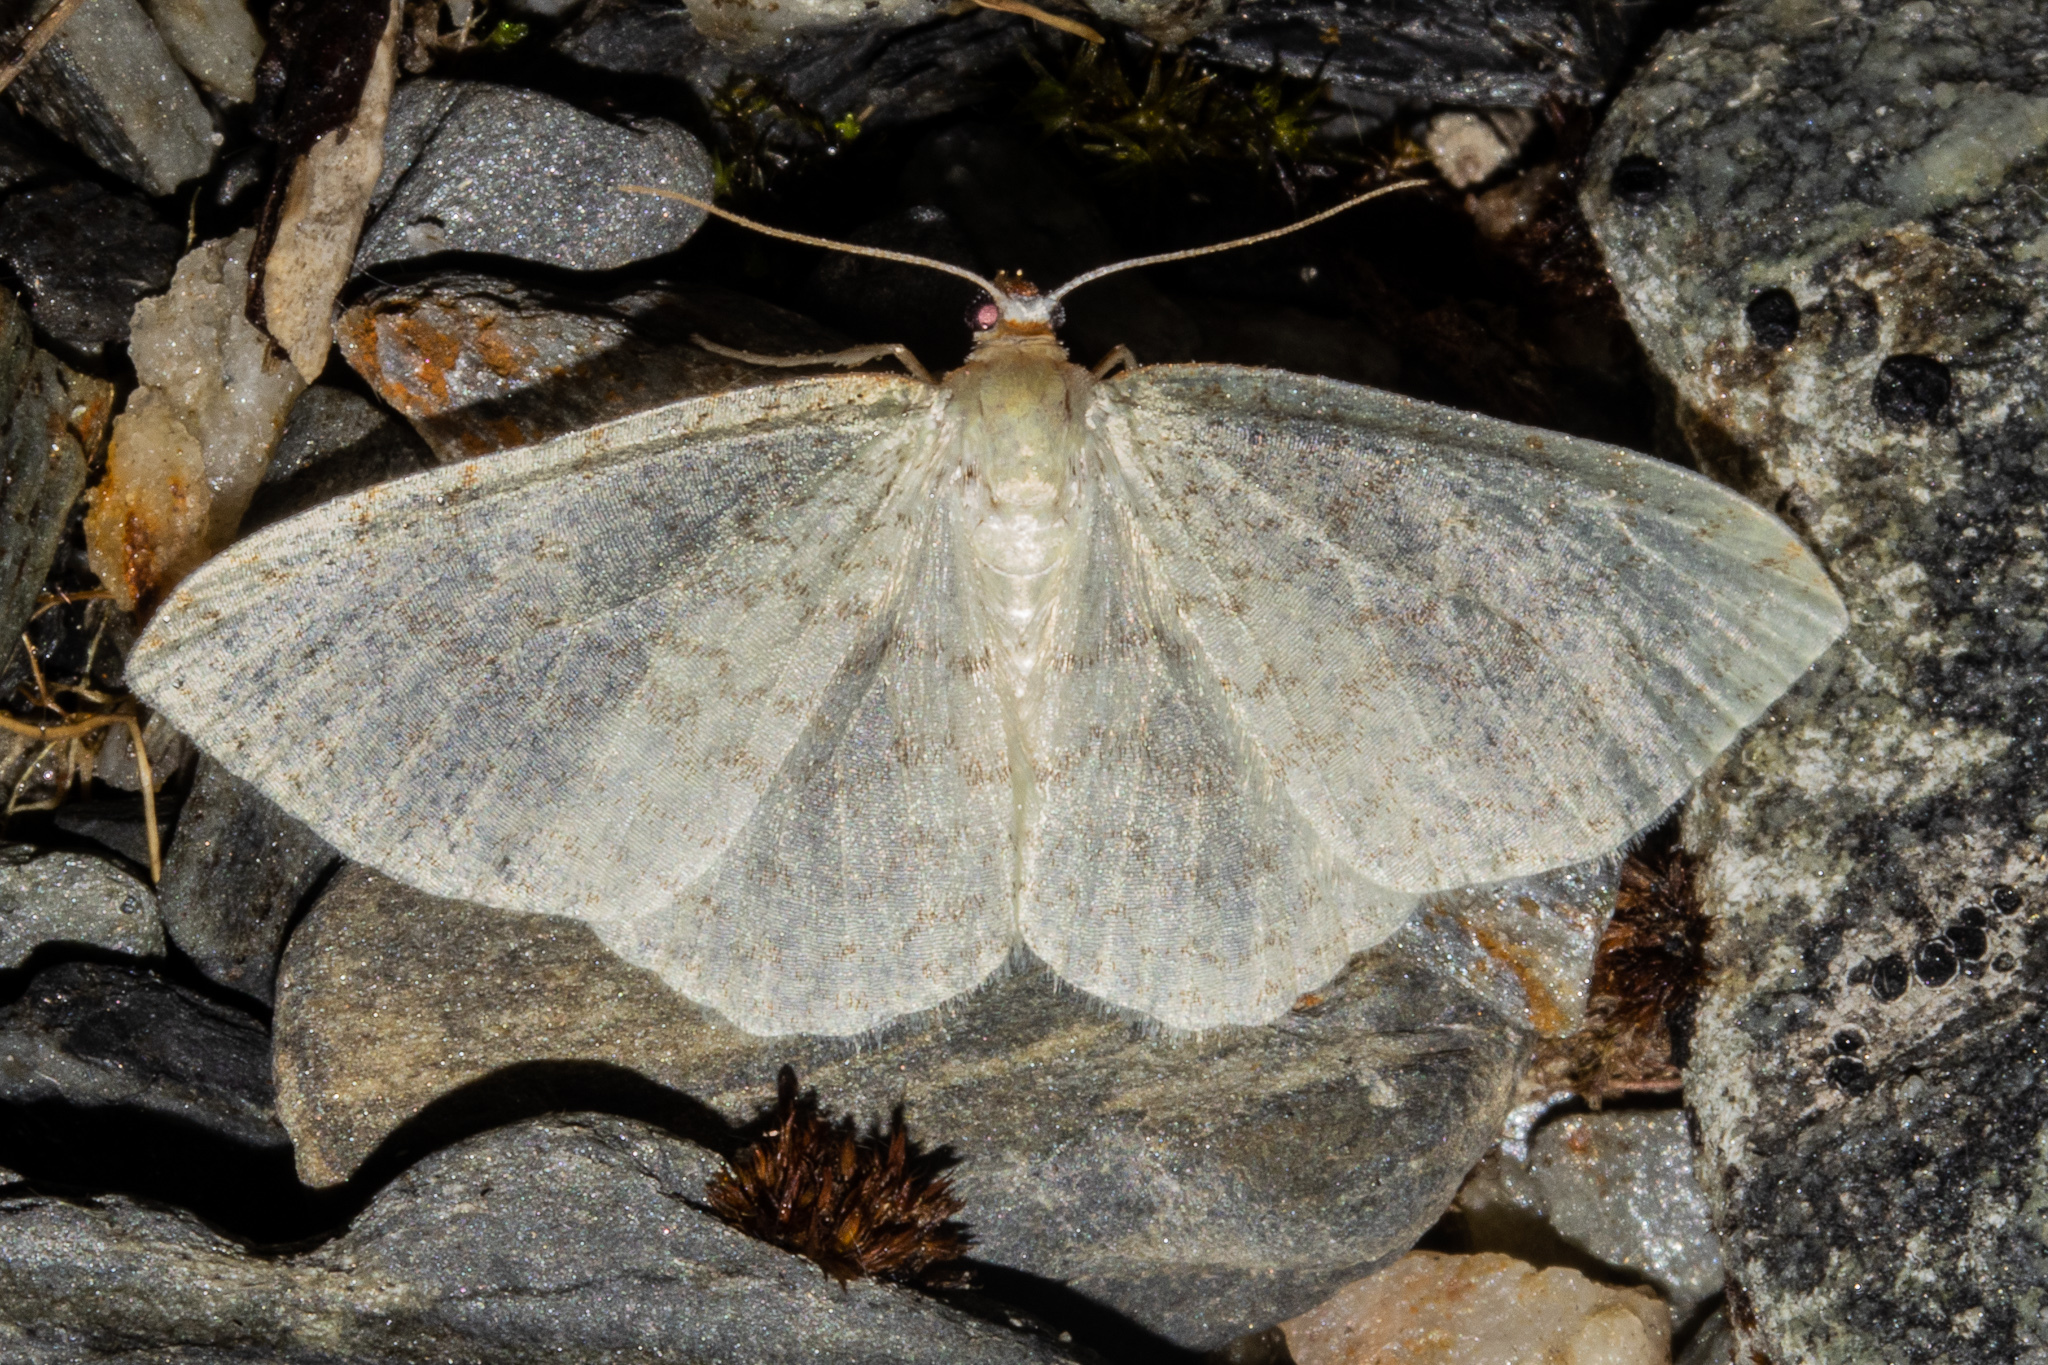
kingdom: Animalia
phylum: Arthropoda
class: Insecta
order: Lepidoptera
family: Geometridae
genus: Epiphryne
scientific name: Epiphryne undosata
